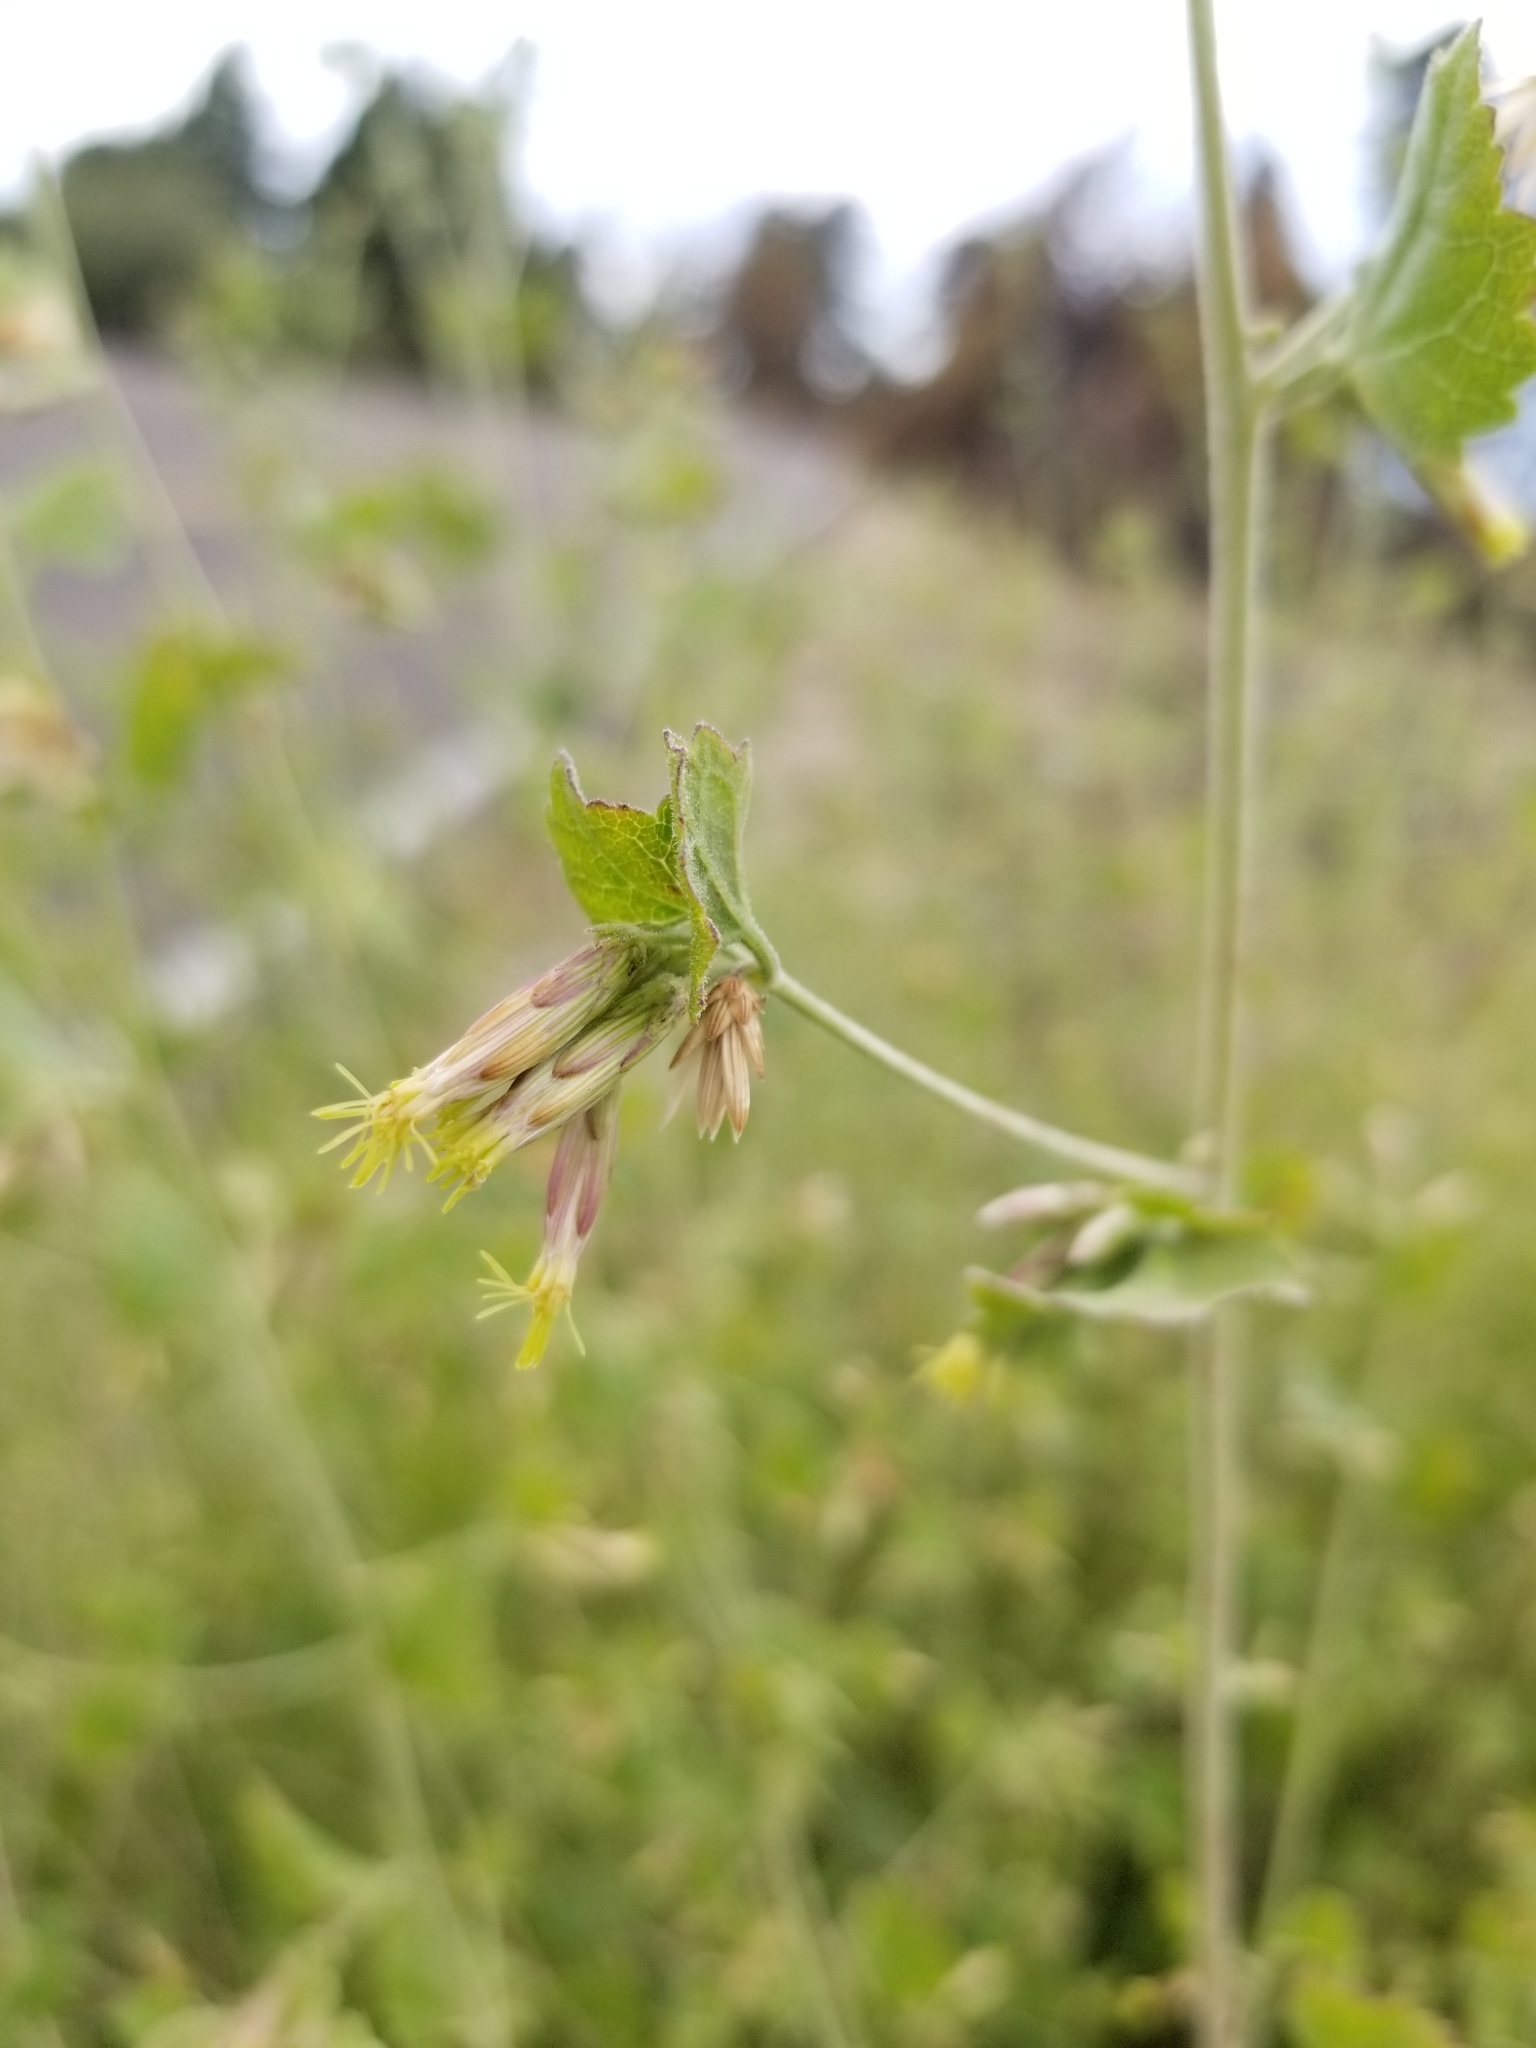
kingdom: Plantae
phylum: Tracheophyta
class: Magnoliopsida
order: Asterales
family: Asteraceae
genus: Brickellia
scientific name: Brickellia californica
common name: California brickellbush
